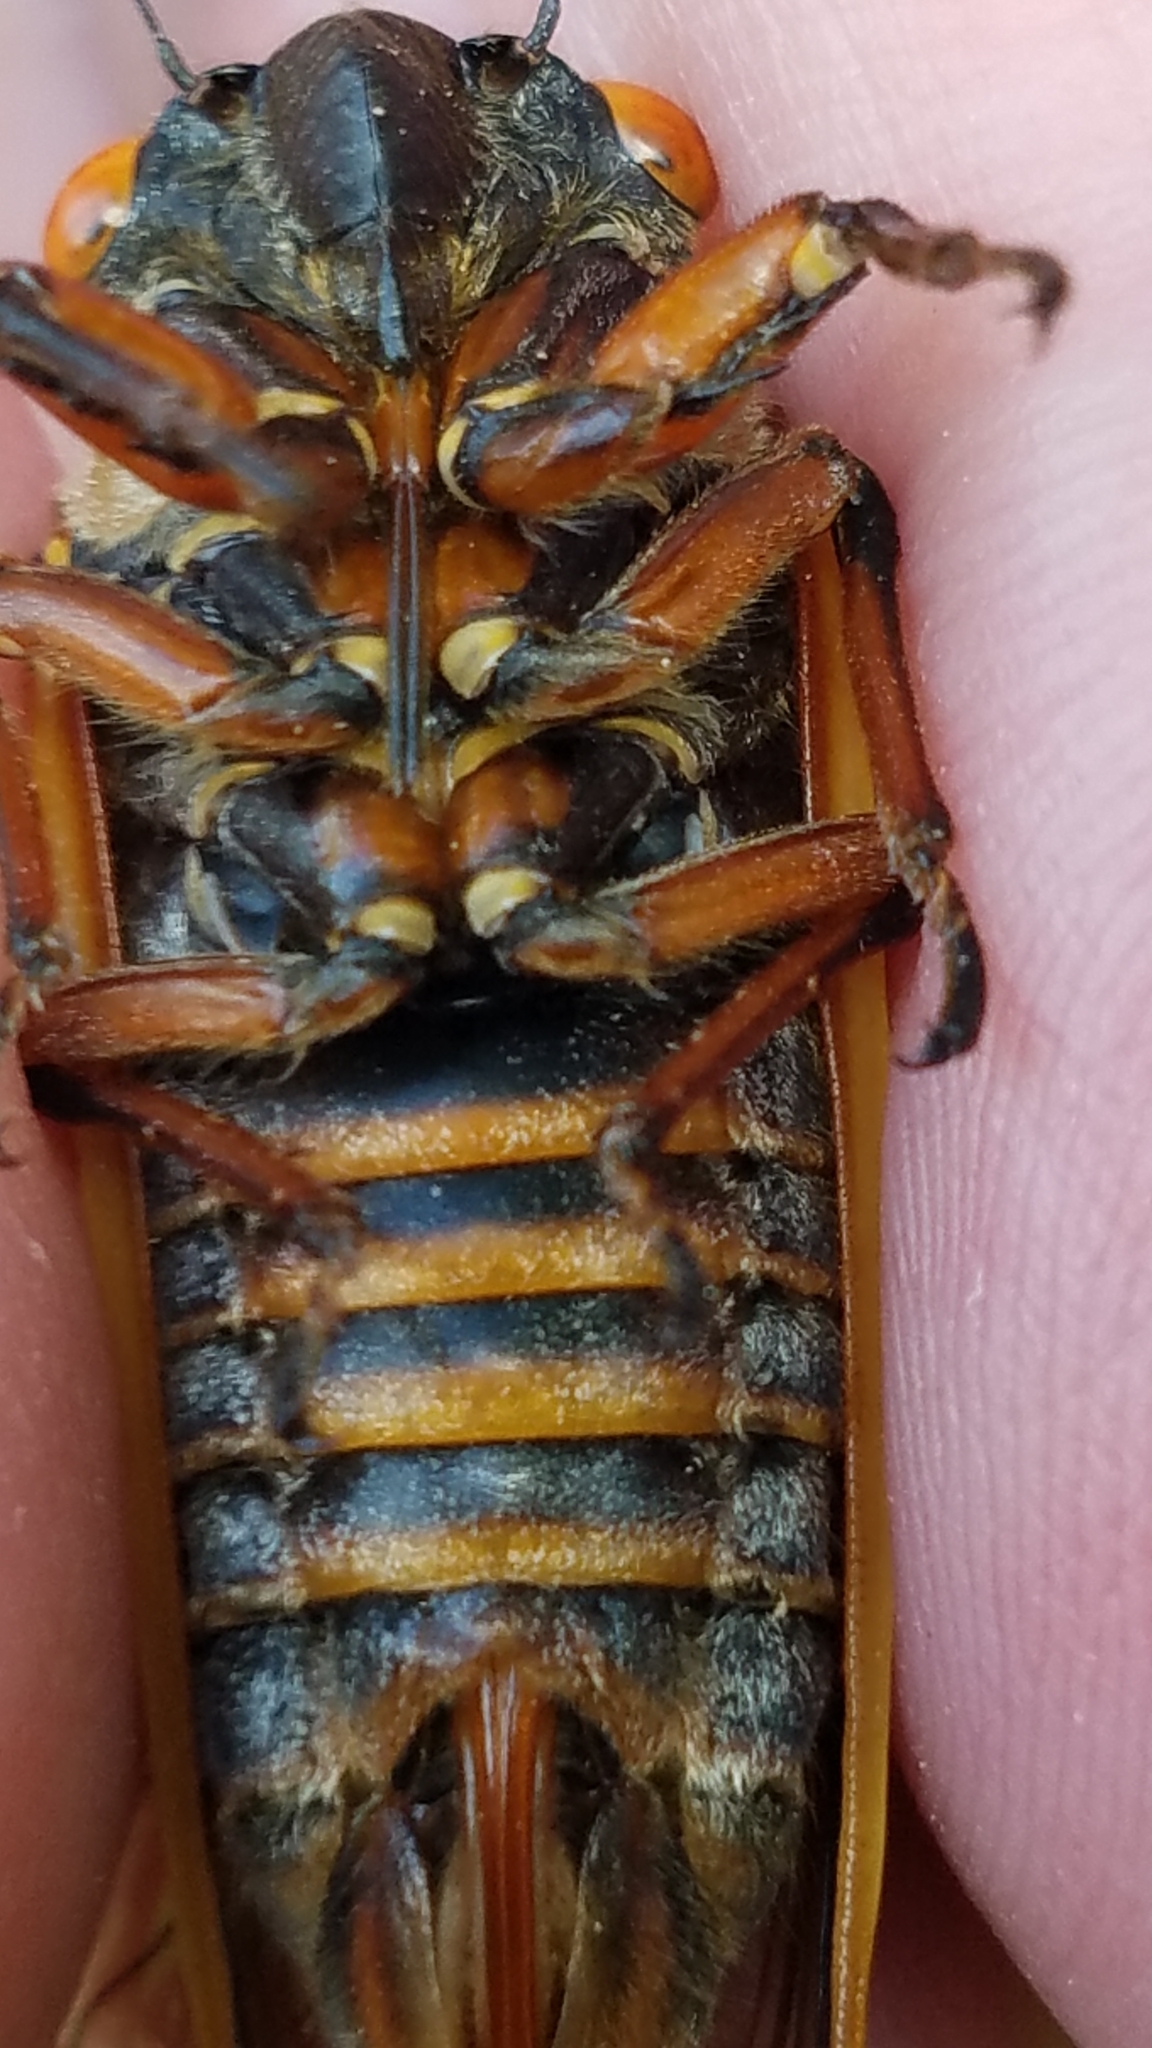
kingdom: Animalia
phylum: Arthropoda
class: Insecta
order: Hemiptera
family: Cicadidae
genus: Magicicada
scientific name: Magicicada septendecim
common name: Periodical cicada
